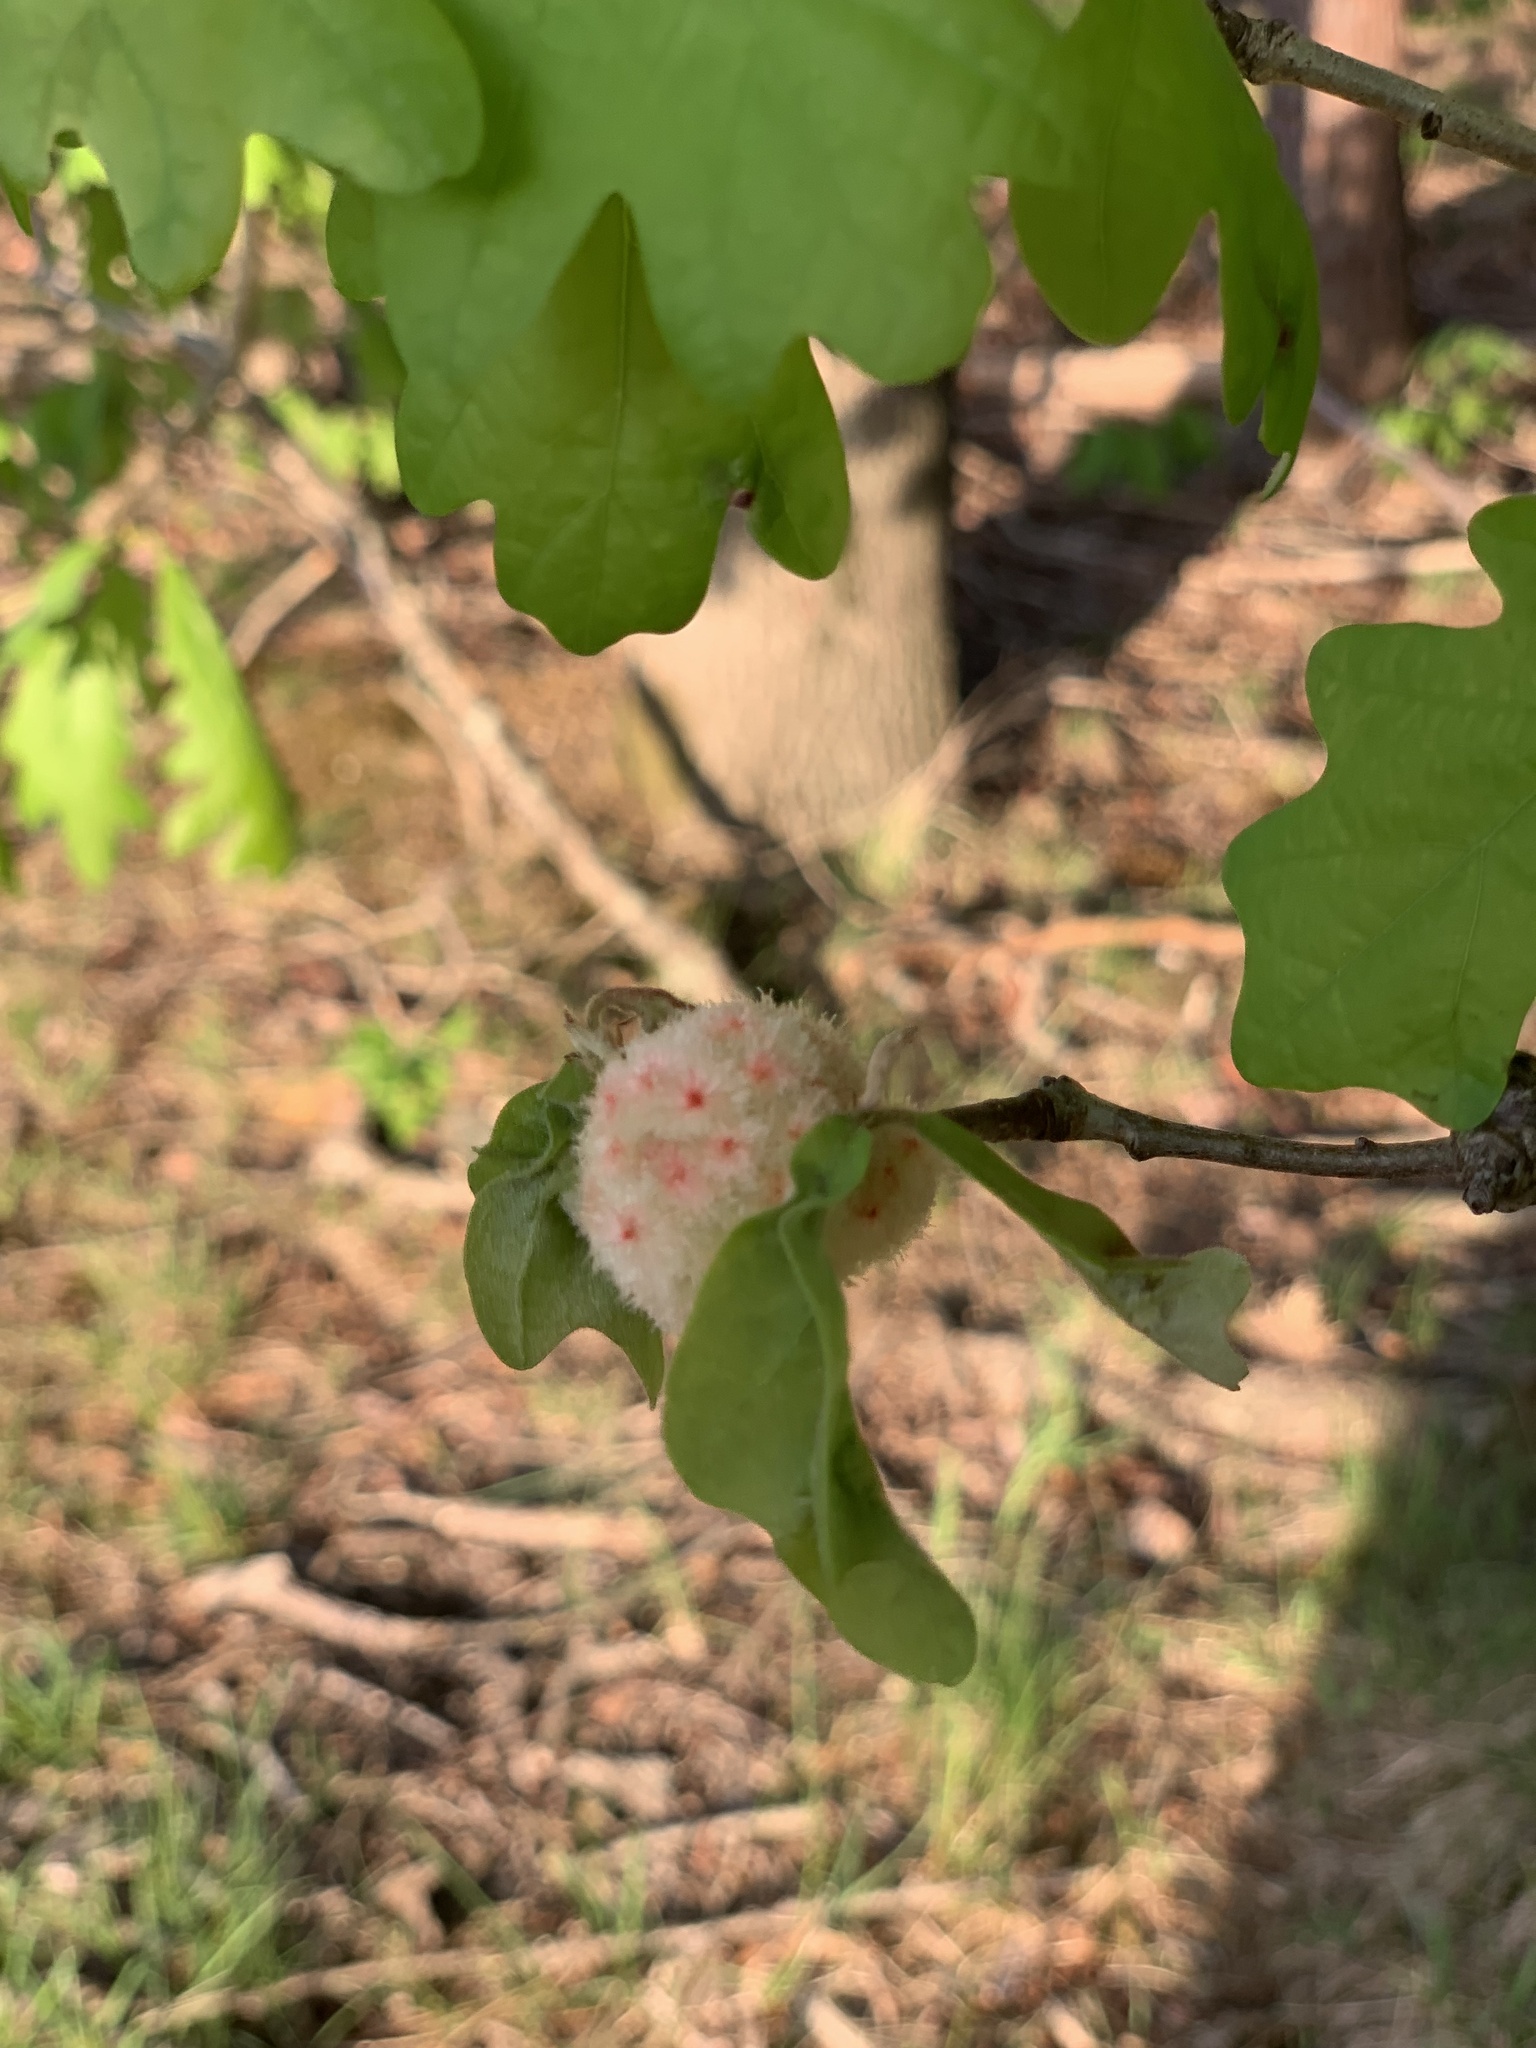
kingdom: Animalia
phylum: Arthropoda
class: Insecta
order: Hymenoptera
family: Cynipidae
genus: Callirhytis
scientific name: Callirhytis
